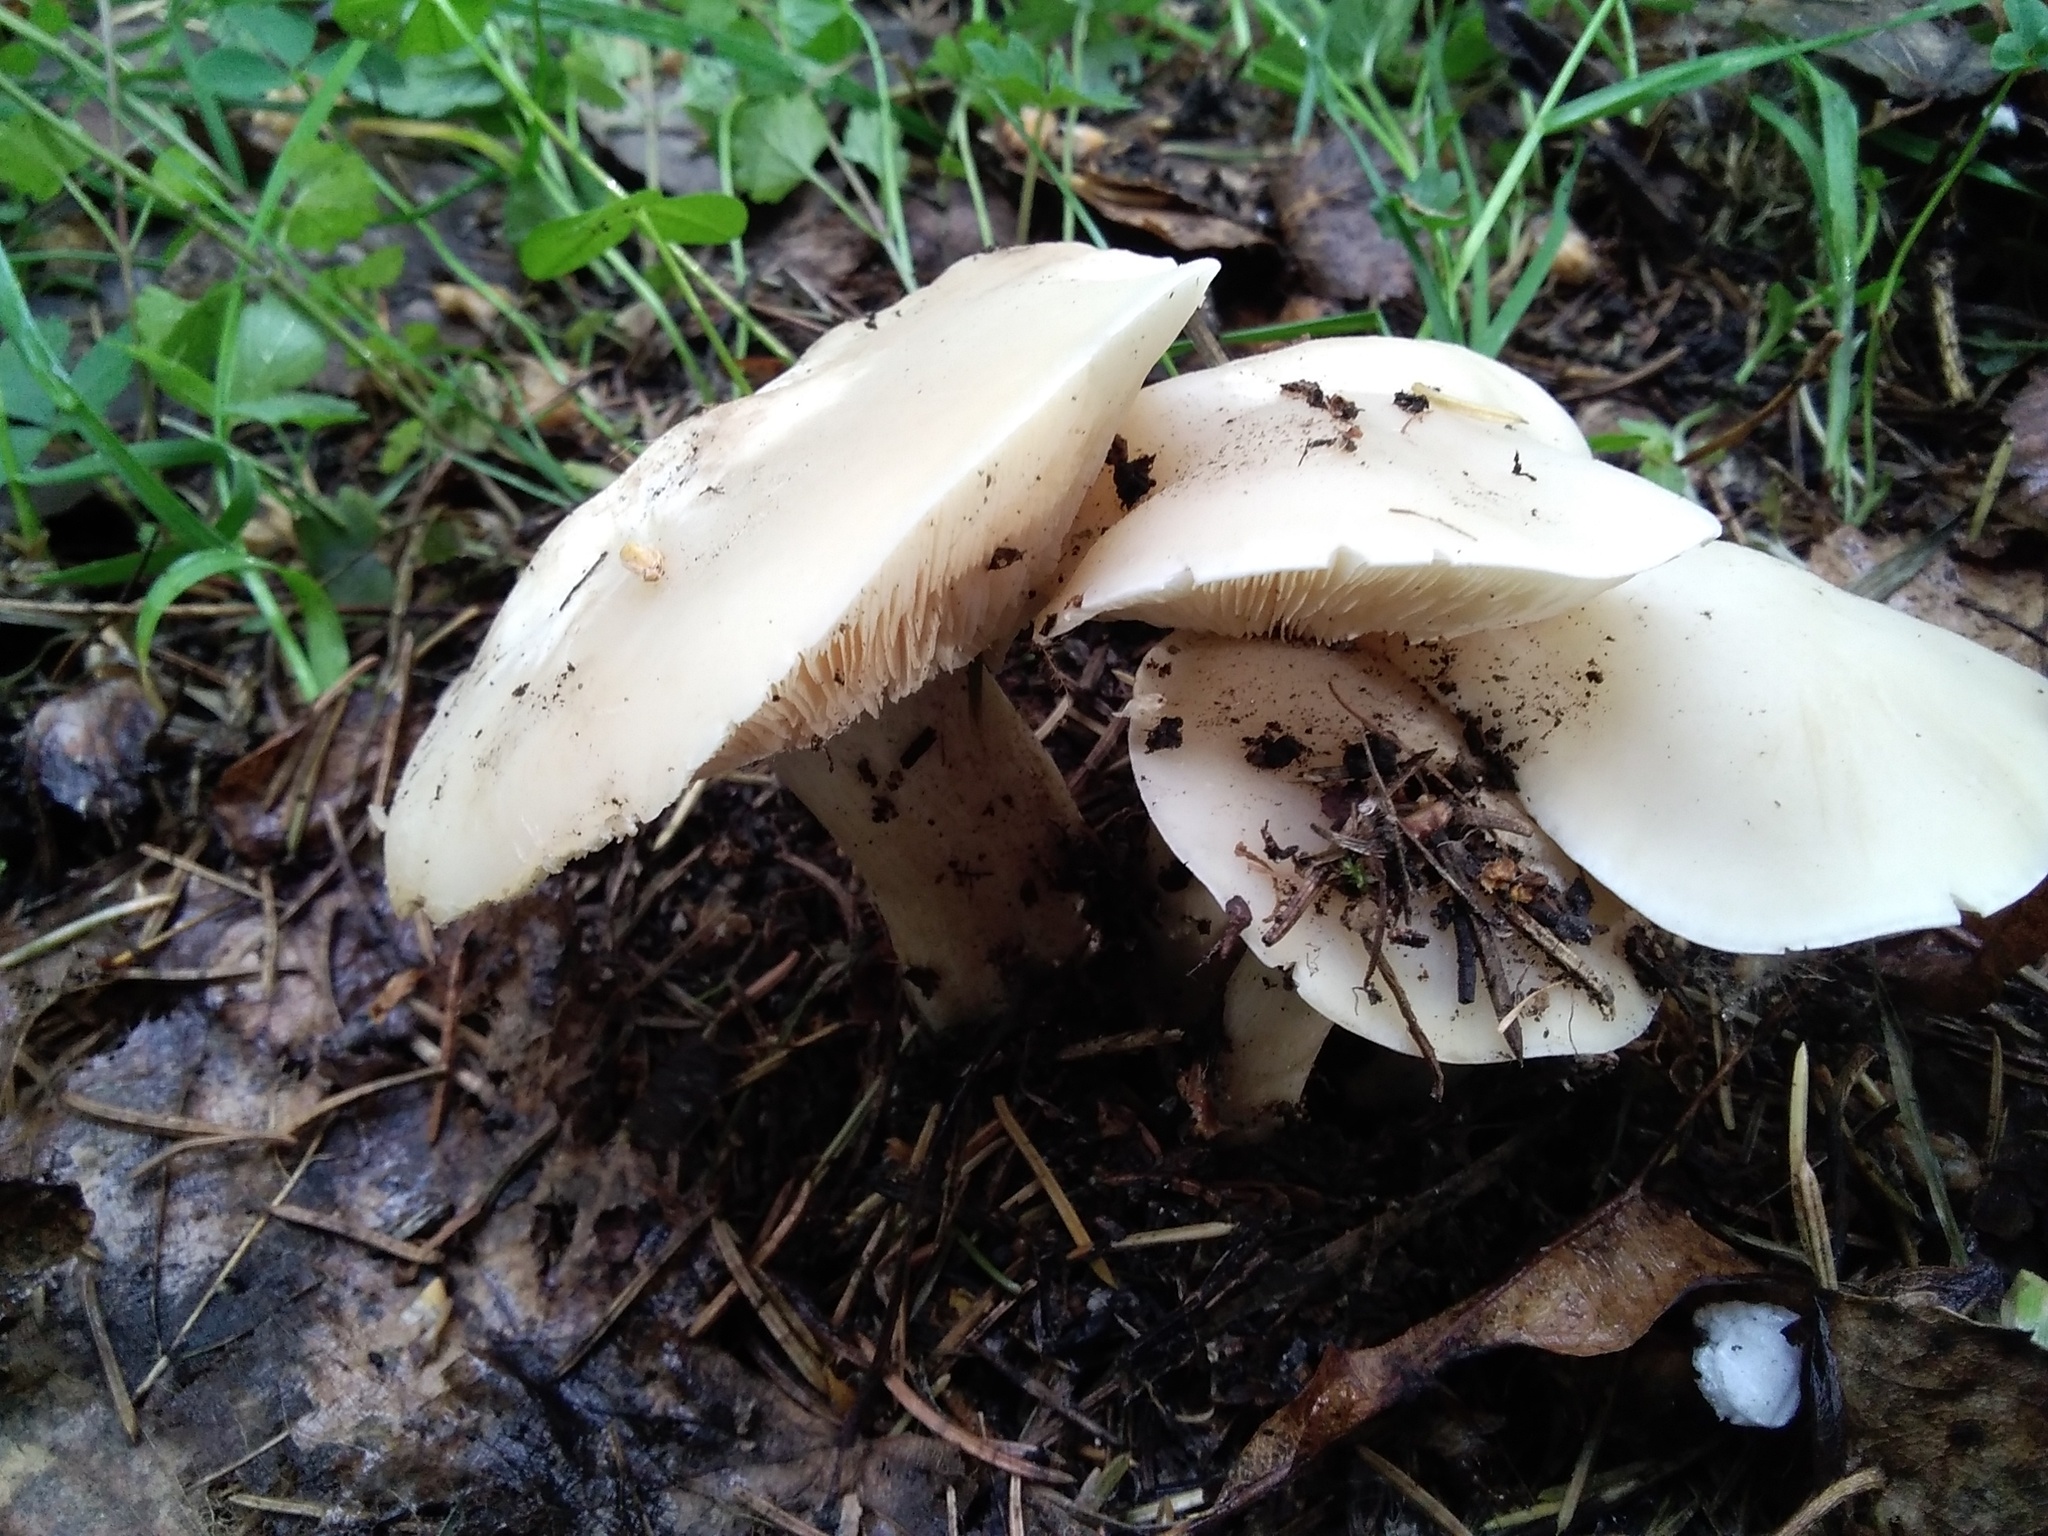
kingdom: Fungi
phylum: Basidiomycota
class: Agaricomycetes
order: Agaricales
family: Lyophyllaceae
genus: Calocybe
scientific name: Calocybe gambosa
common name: St. george's mushroom
